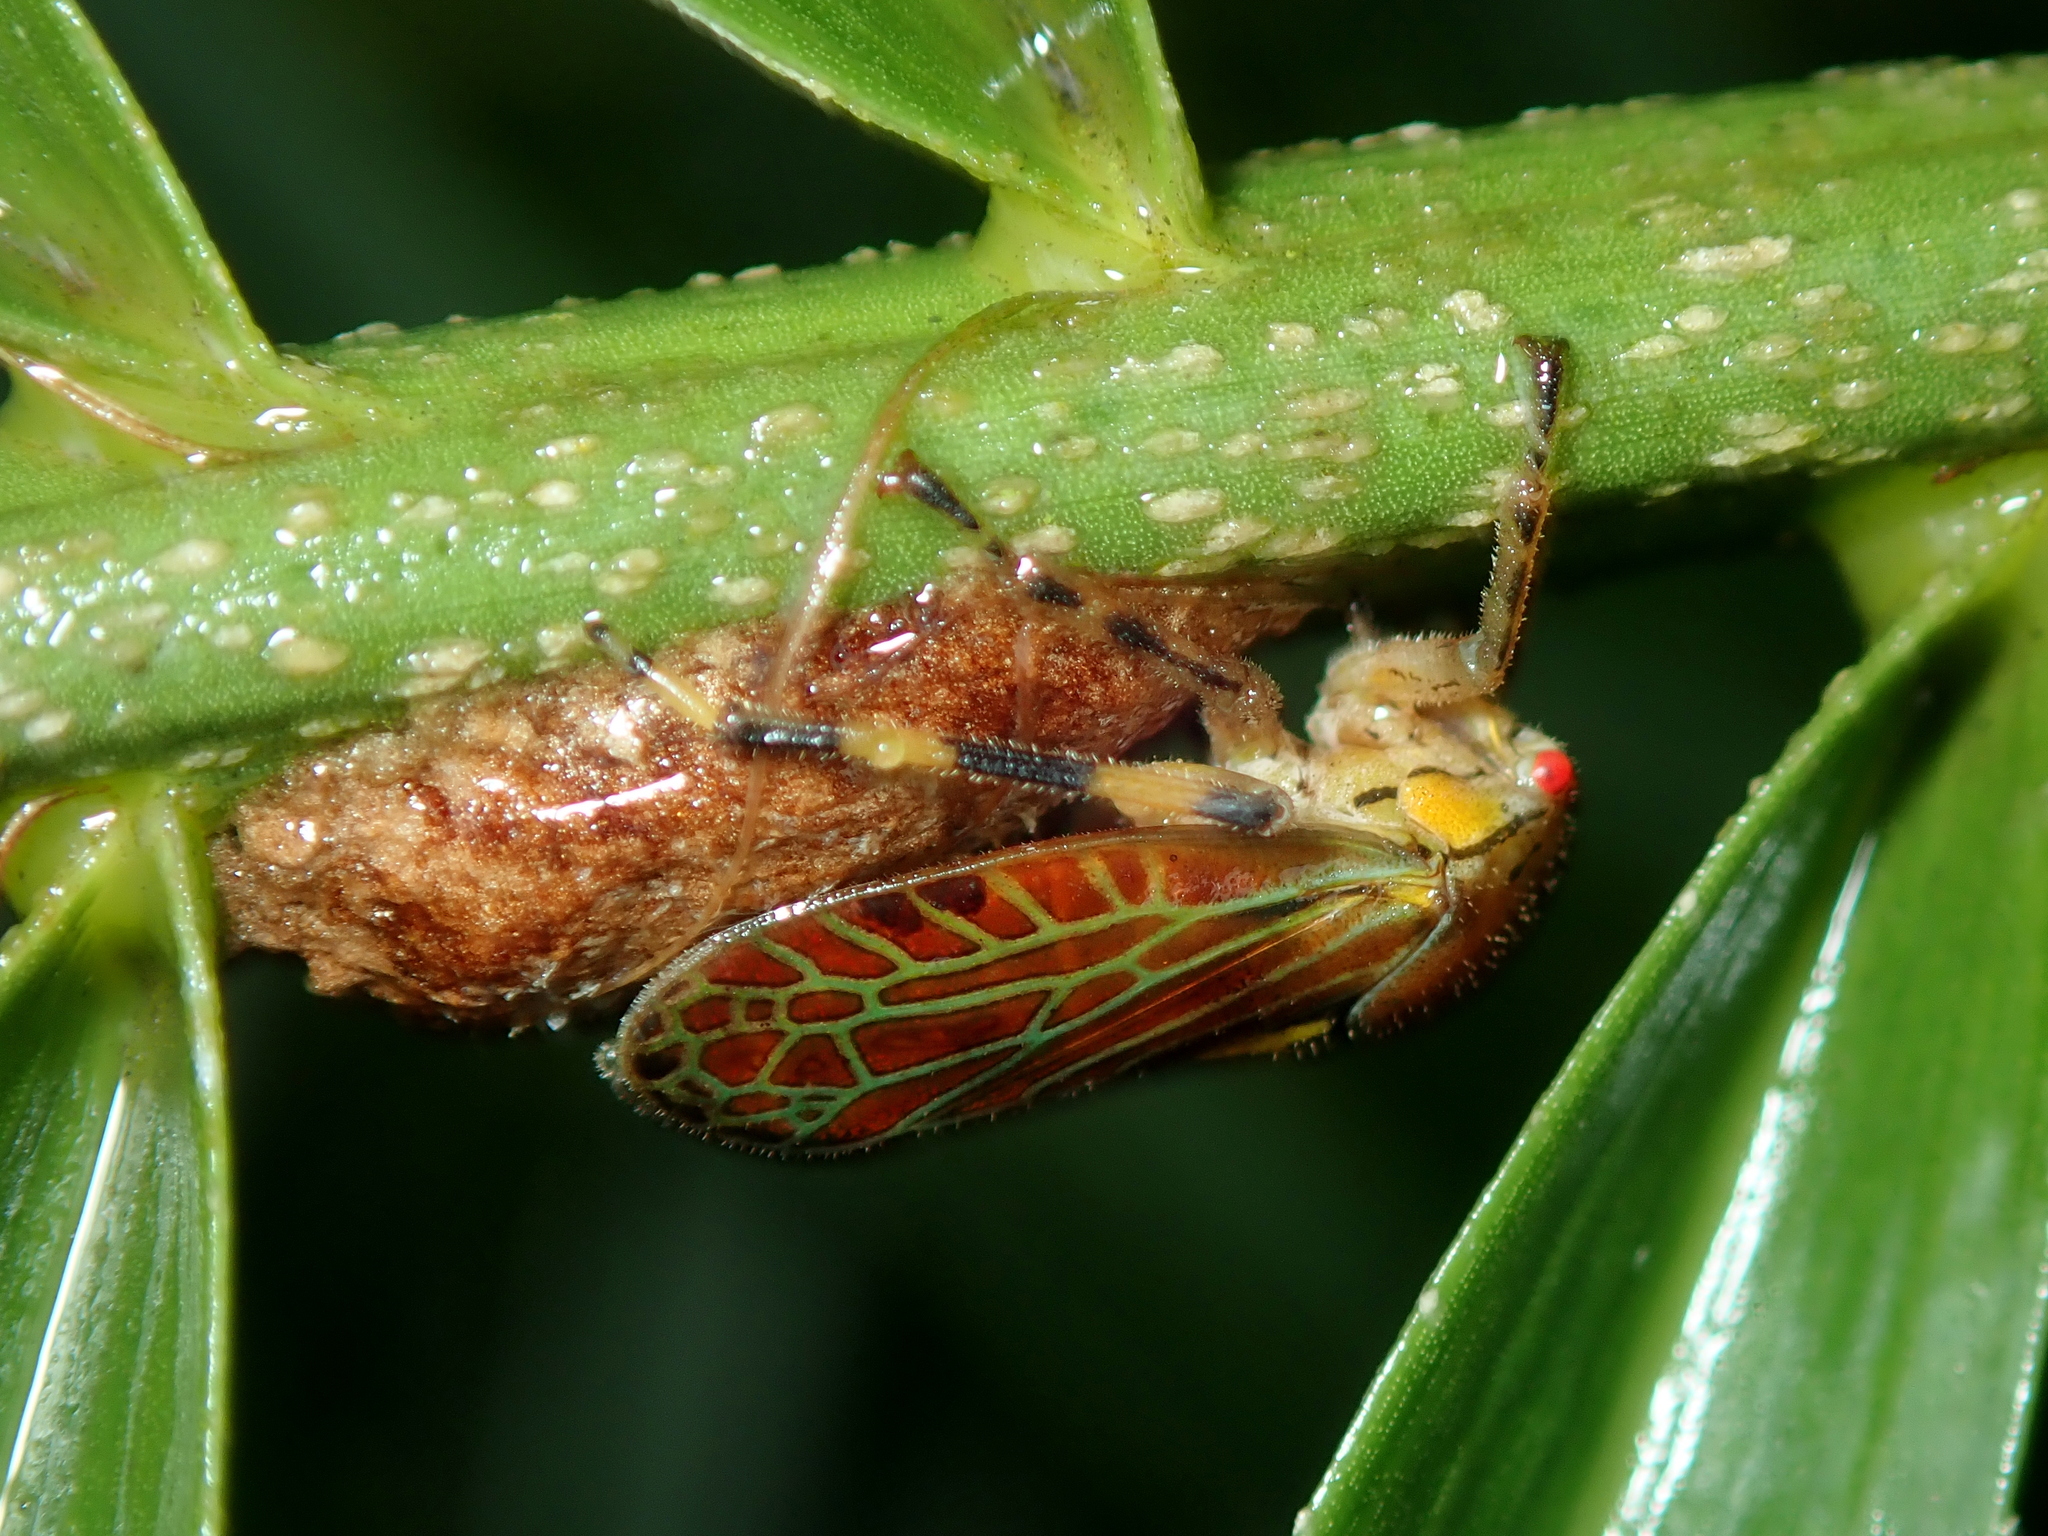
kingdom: Animalia
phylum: Arthropoda
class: Insecta
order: Hemiptera
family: Aetalionidae
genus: Aetalion
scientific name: Aetalion reticulatum
